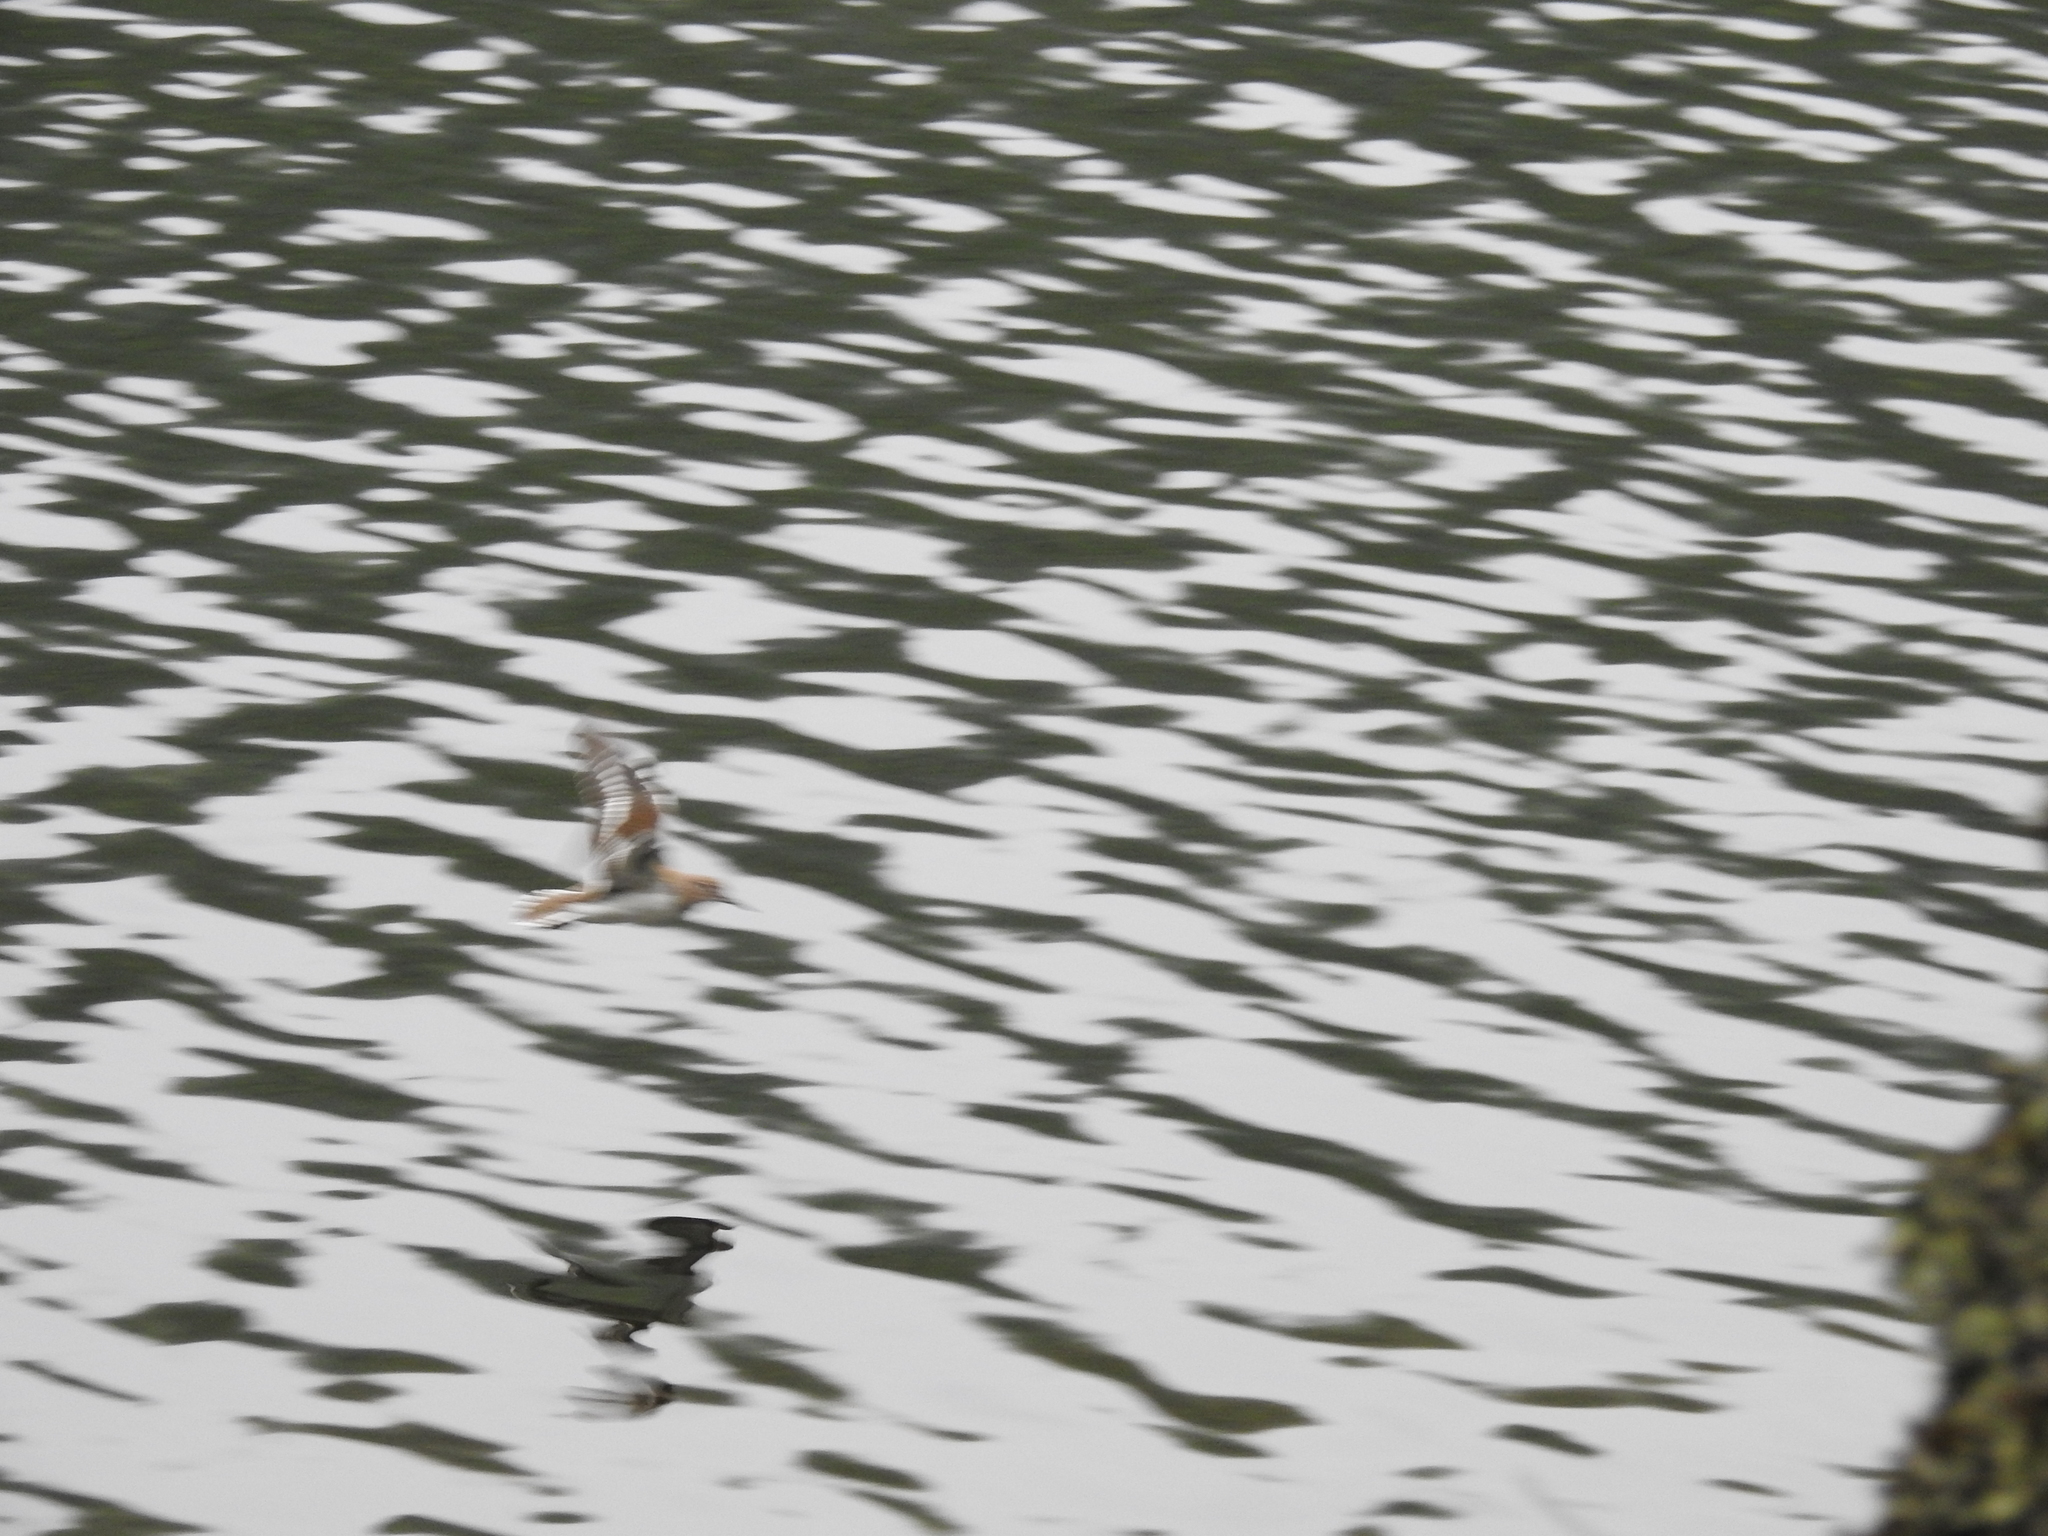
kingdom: Animalia
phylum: Chordata
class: Aves
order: Charadriiformes
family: Scolopacidae
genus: Actitis
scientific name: Actitis hypoleucos
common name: Common sandpiper
